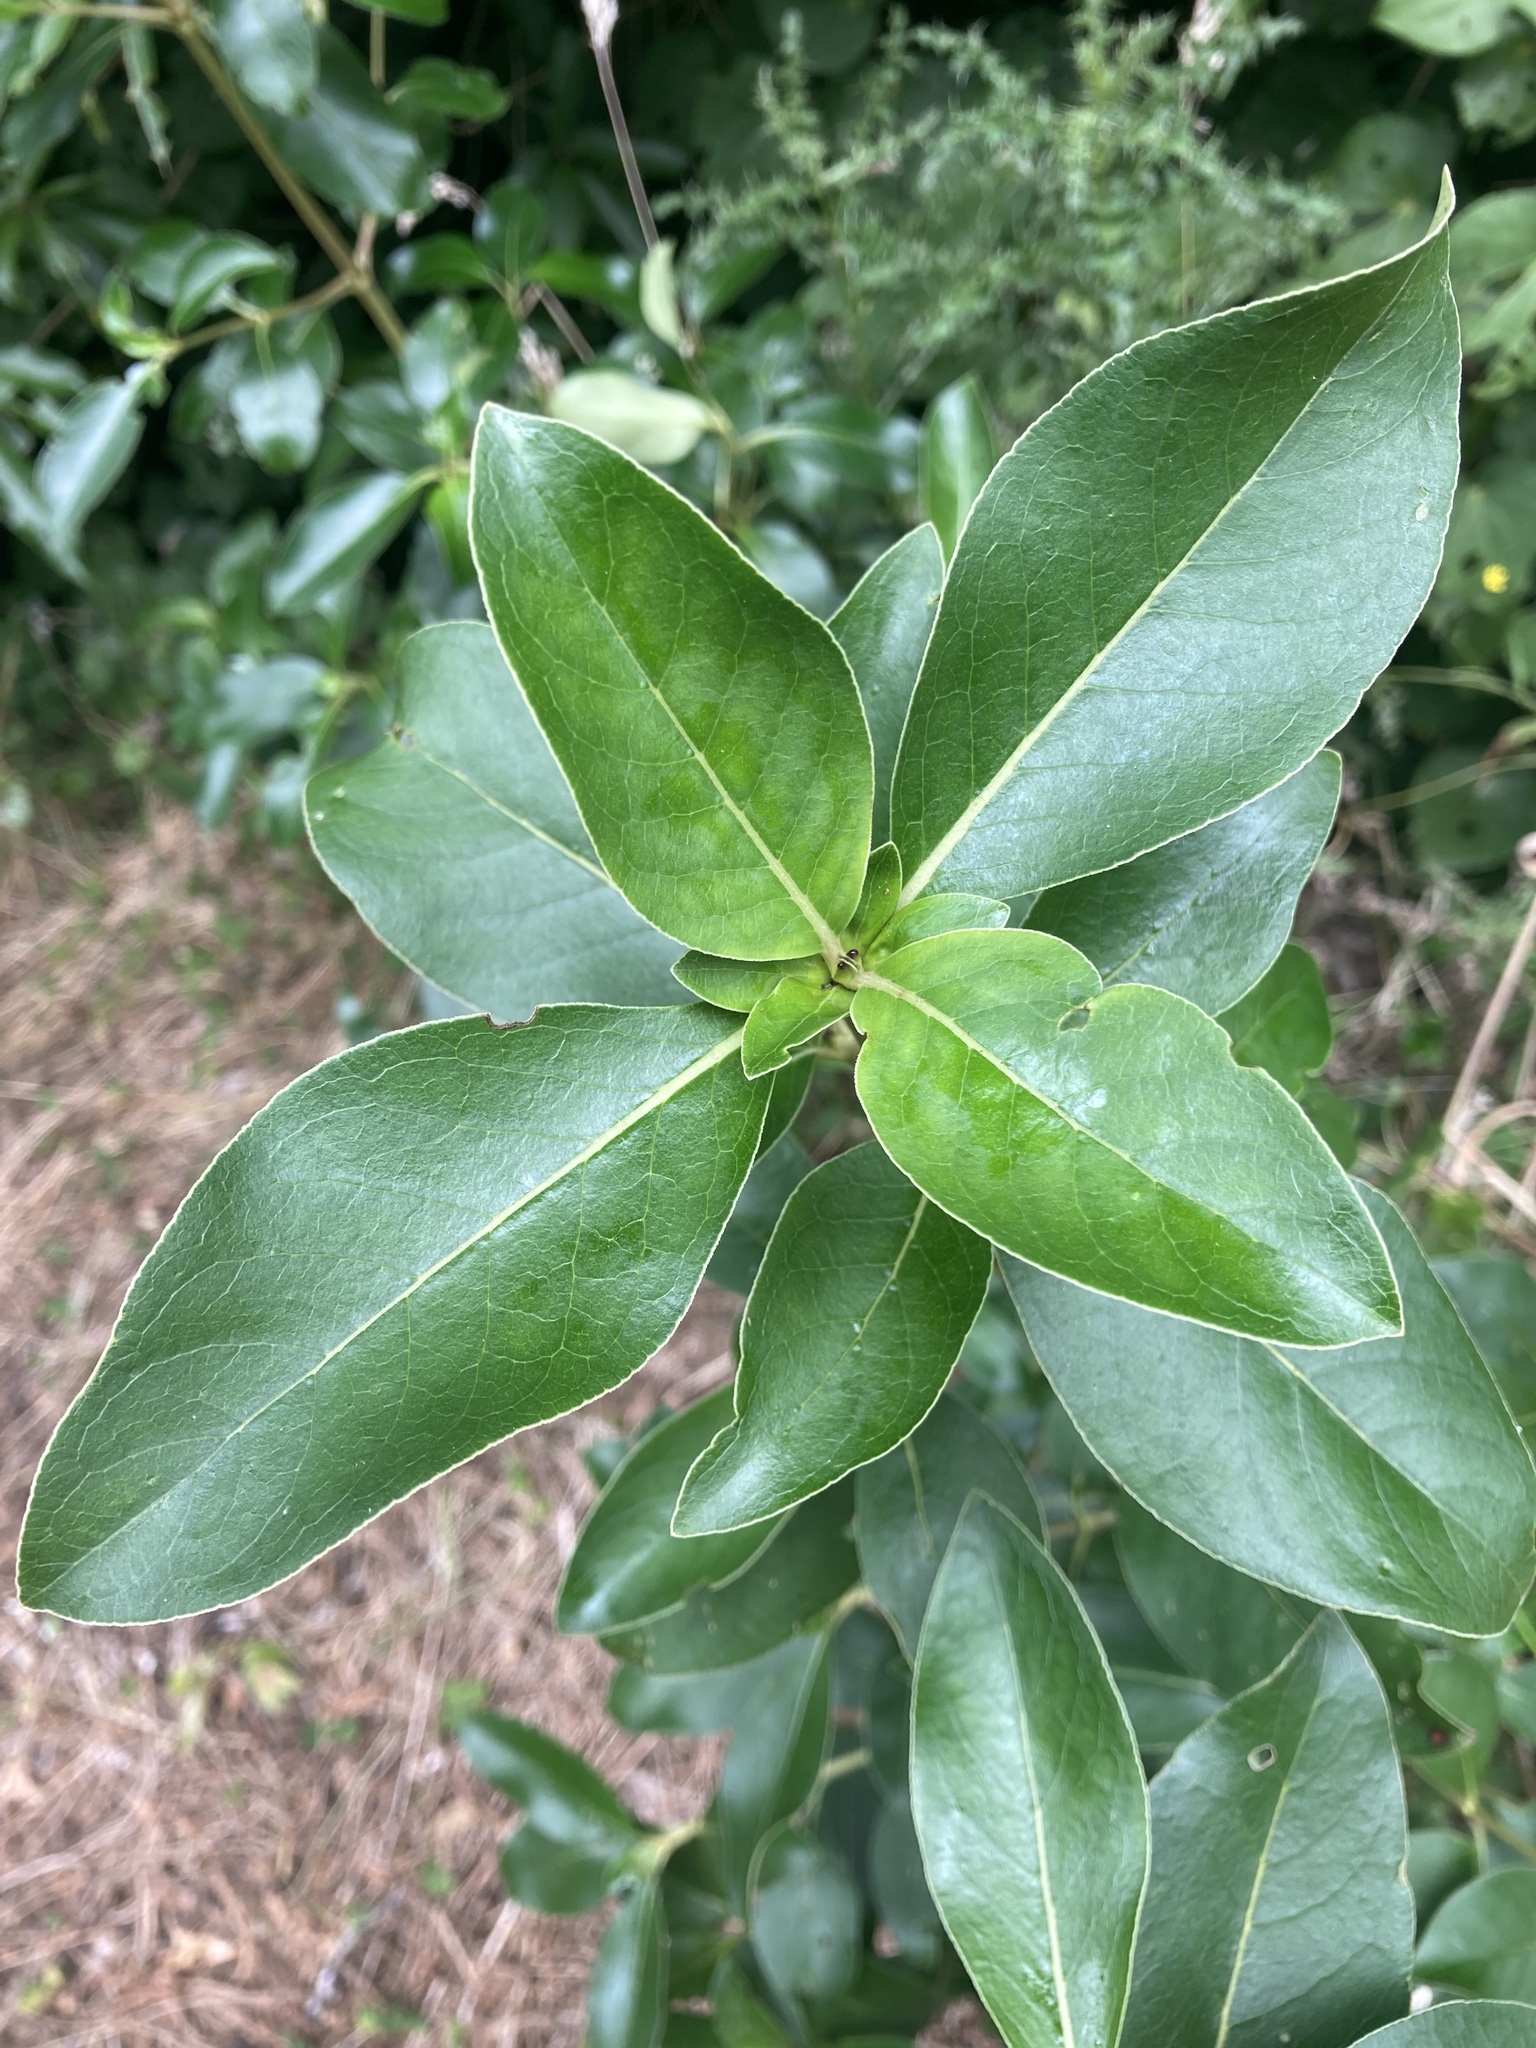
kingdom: Plantae
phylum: Tracheophyta
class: Magnoliopsida
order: Gentianales
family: Rubiaceae
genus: Coprosma
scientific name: Coprosma robusta
